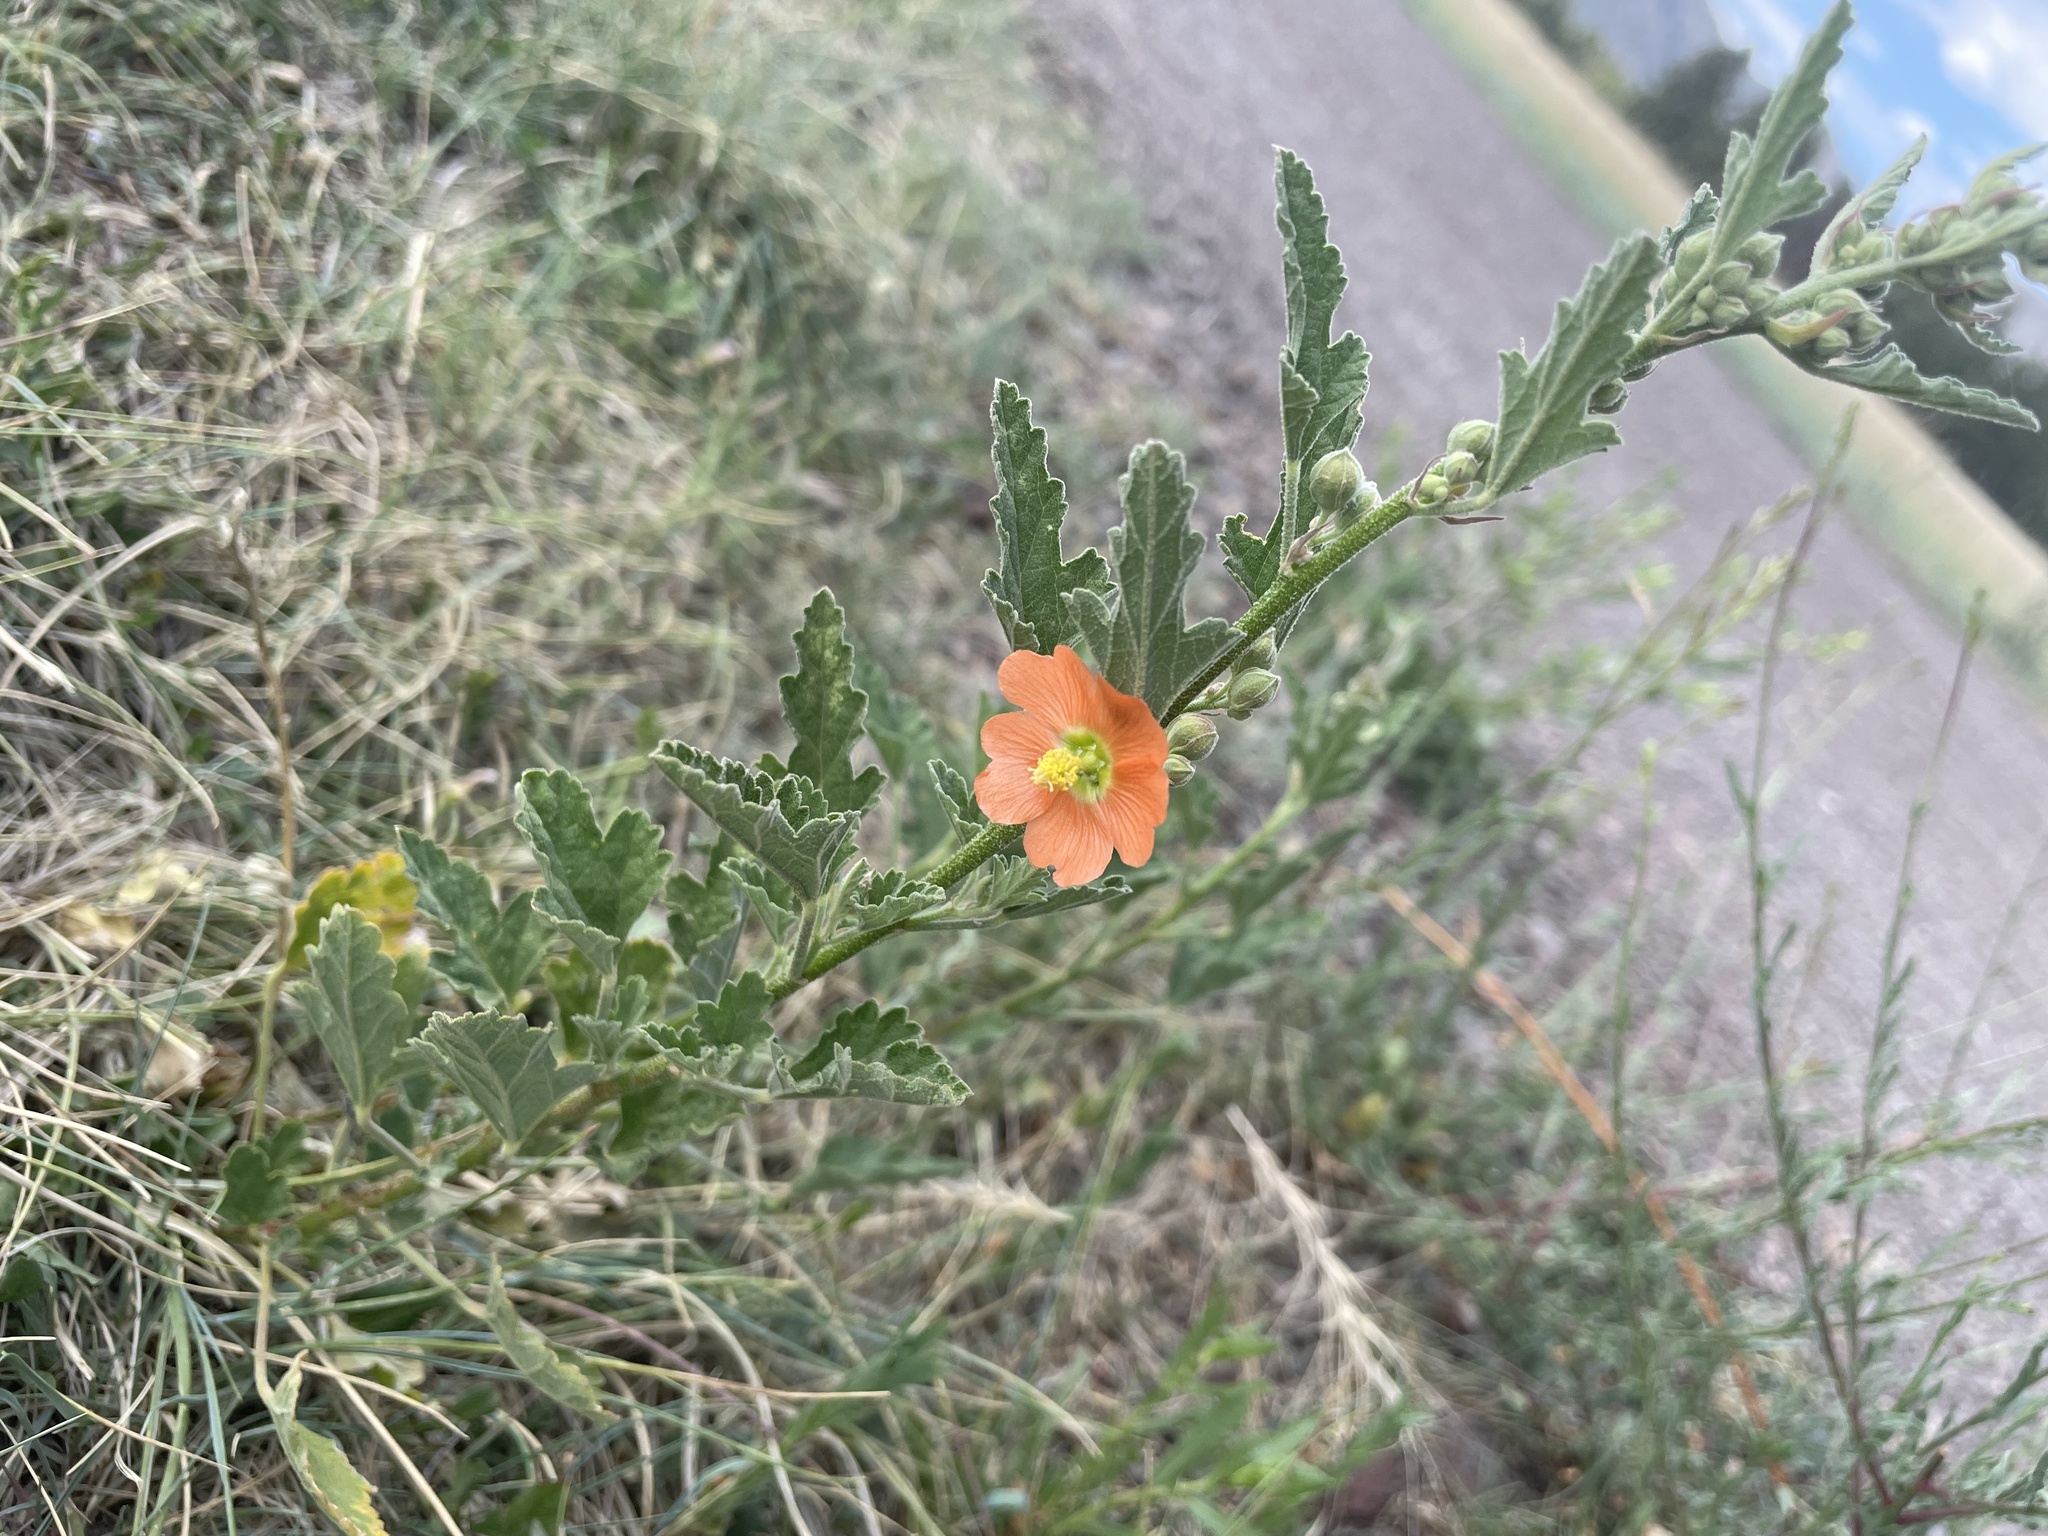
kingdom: Plantae
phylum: Tracheophyta
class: Magnoliopsida
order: Malvales
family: Malvaceae
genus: Sphaeralcea
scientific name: Sphaeralcea
